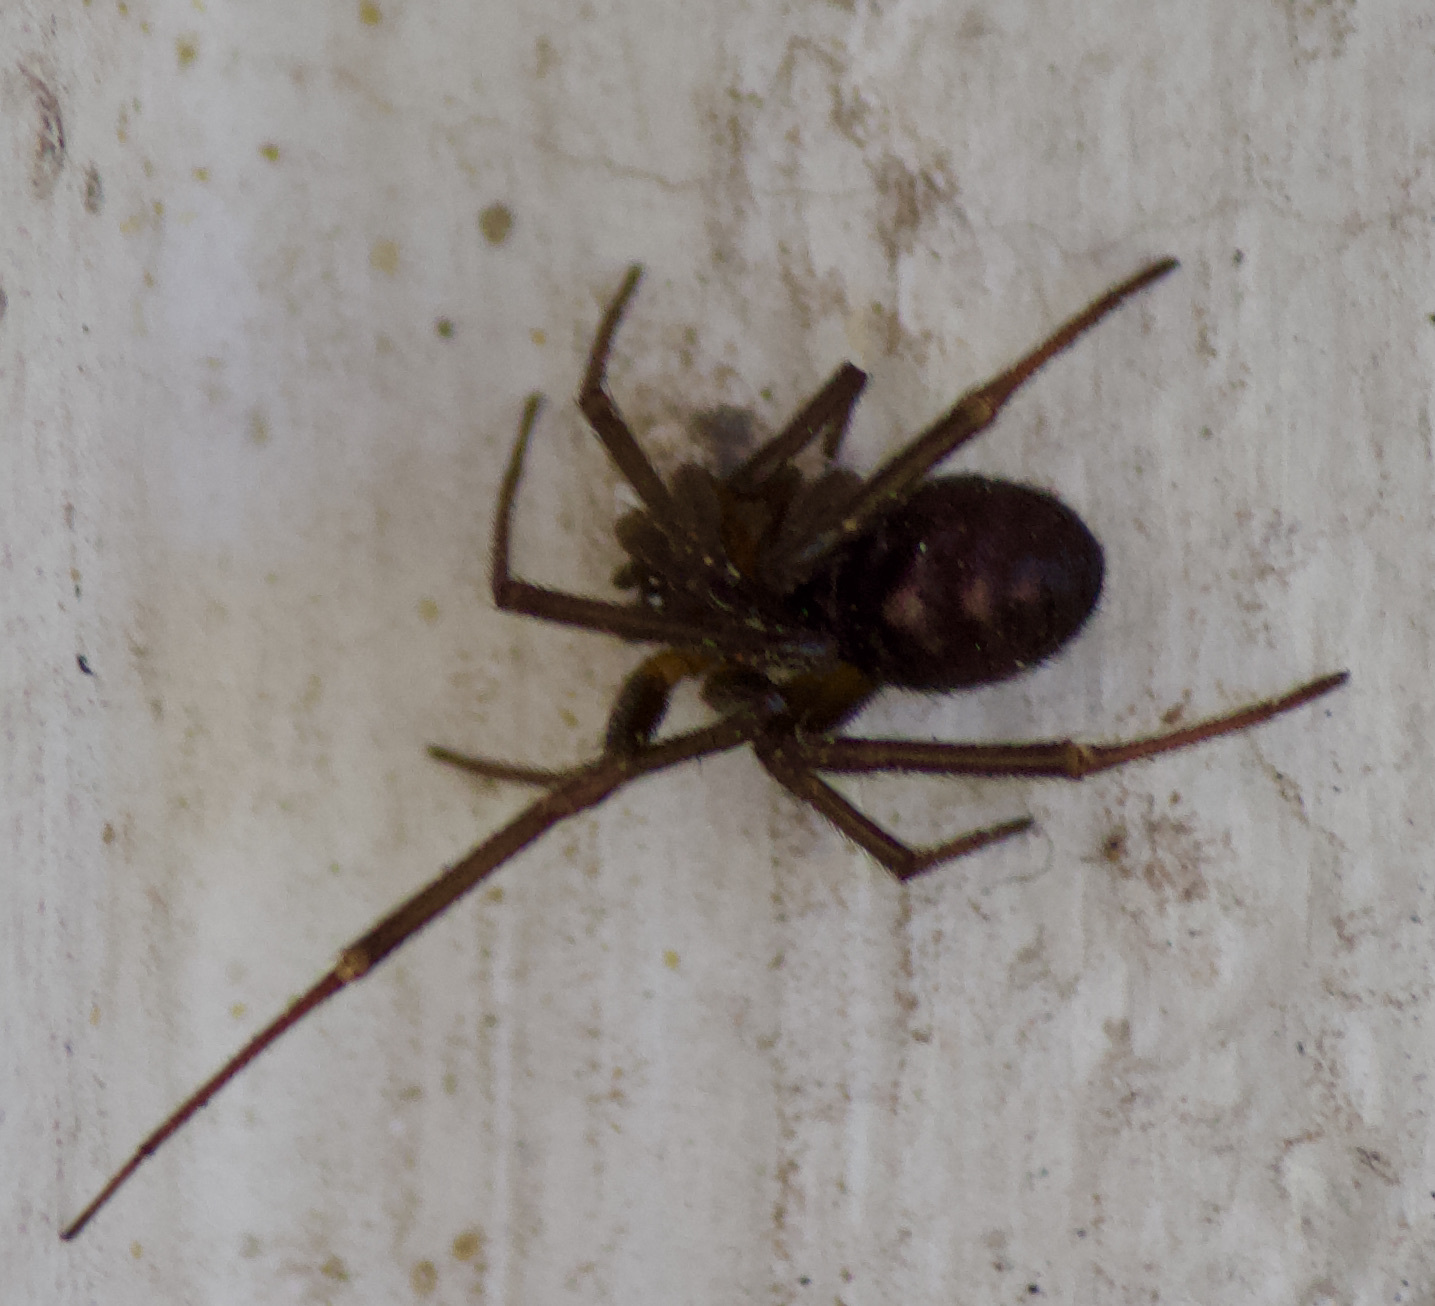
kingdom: Animalia
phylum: Arthropoda
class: Arachnida
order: Araneae
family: Theridiidae
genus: Steatoda
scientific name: Steatoda grossa
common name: False black widow
